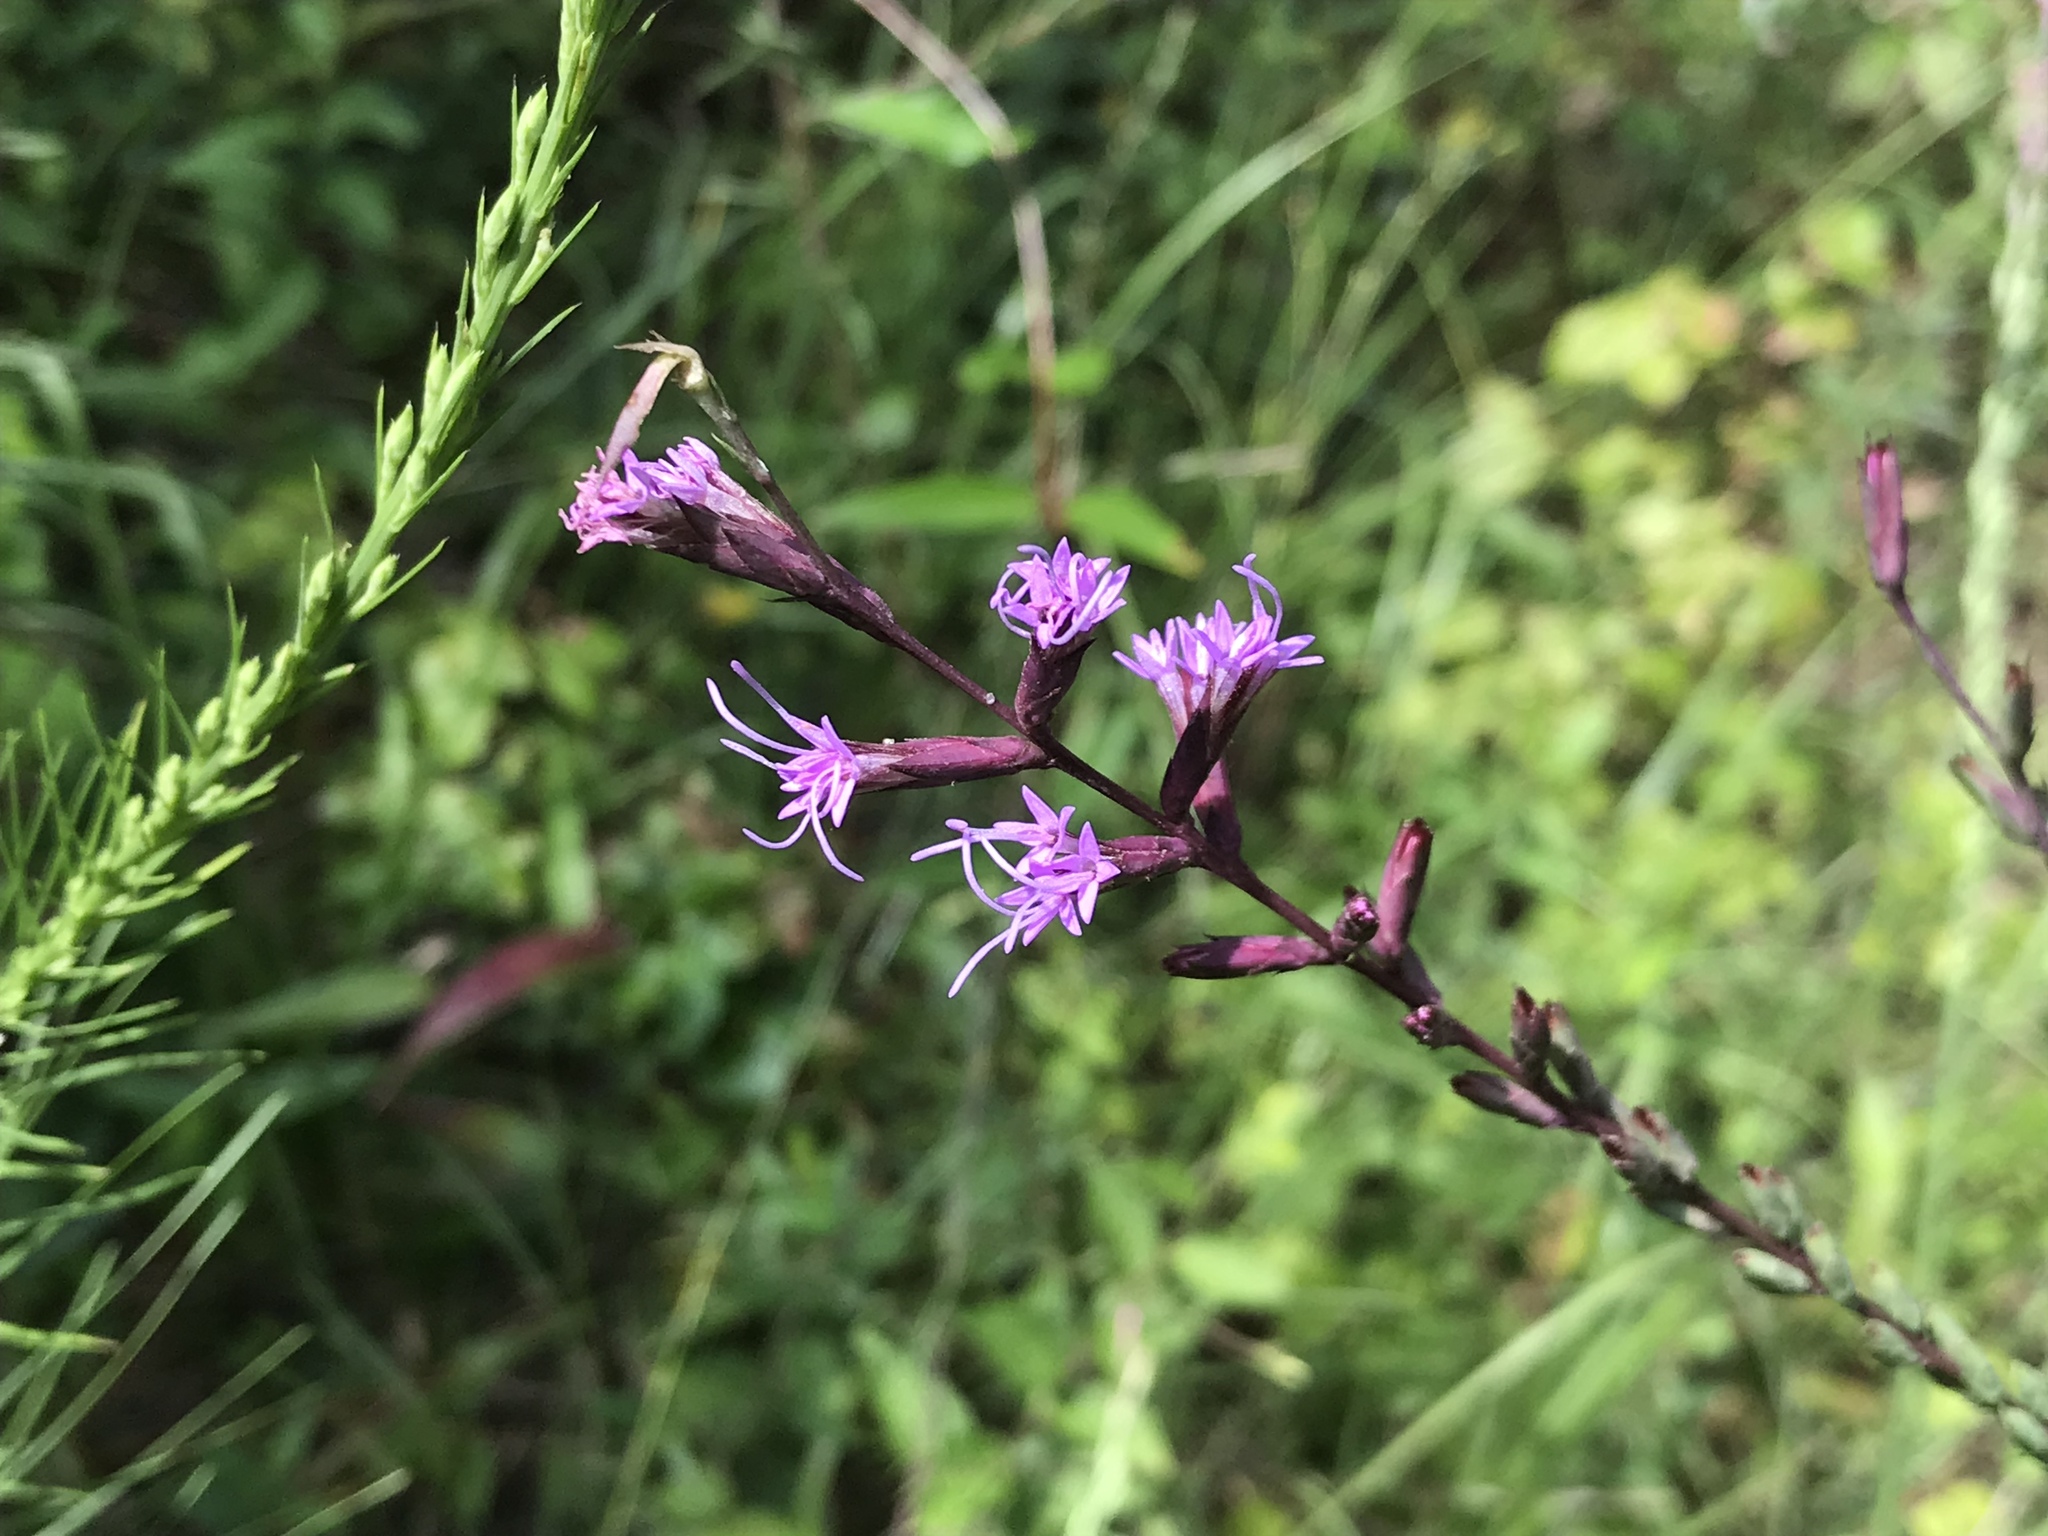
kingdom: Plantae
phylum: Tracheophyta
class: Magnoliopsida
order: Asterales
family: Asteraceae
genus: Liatris
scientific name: Liatris acidota
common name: Gulf coast gayfeather
